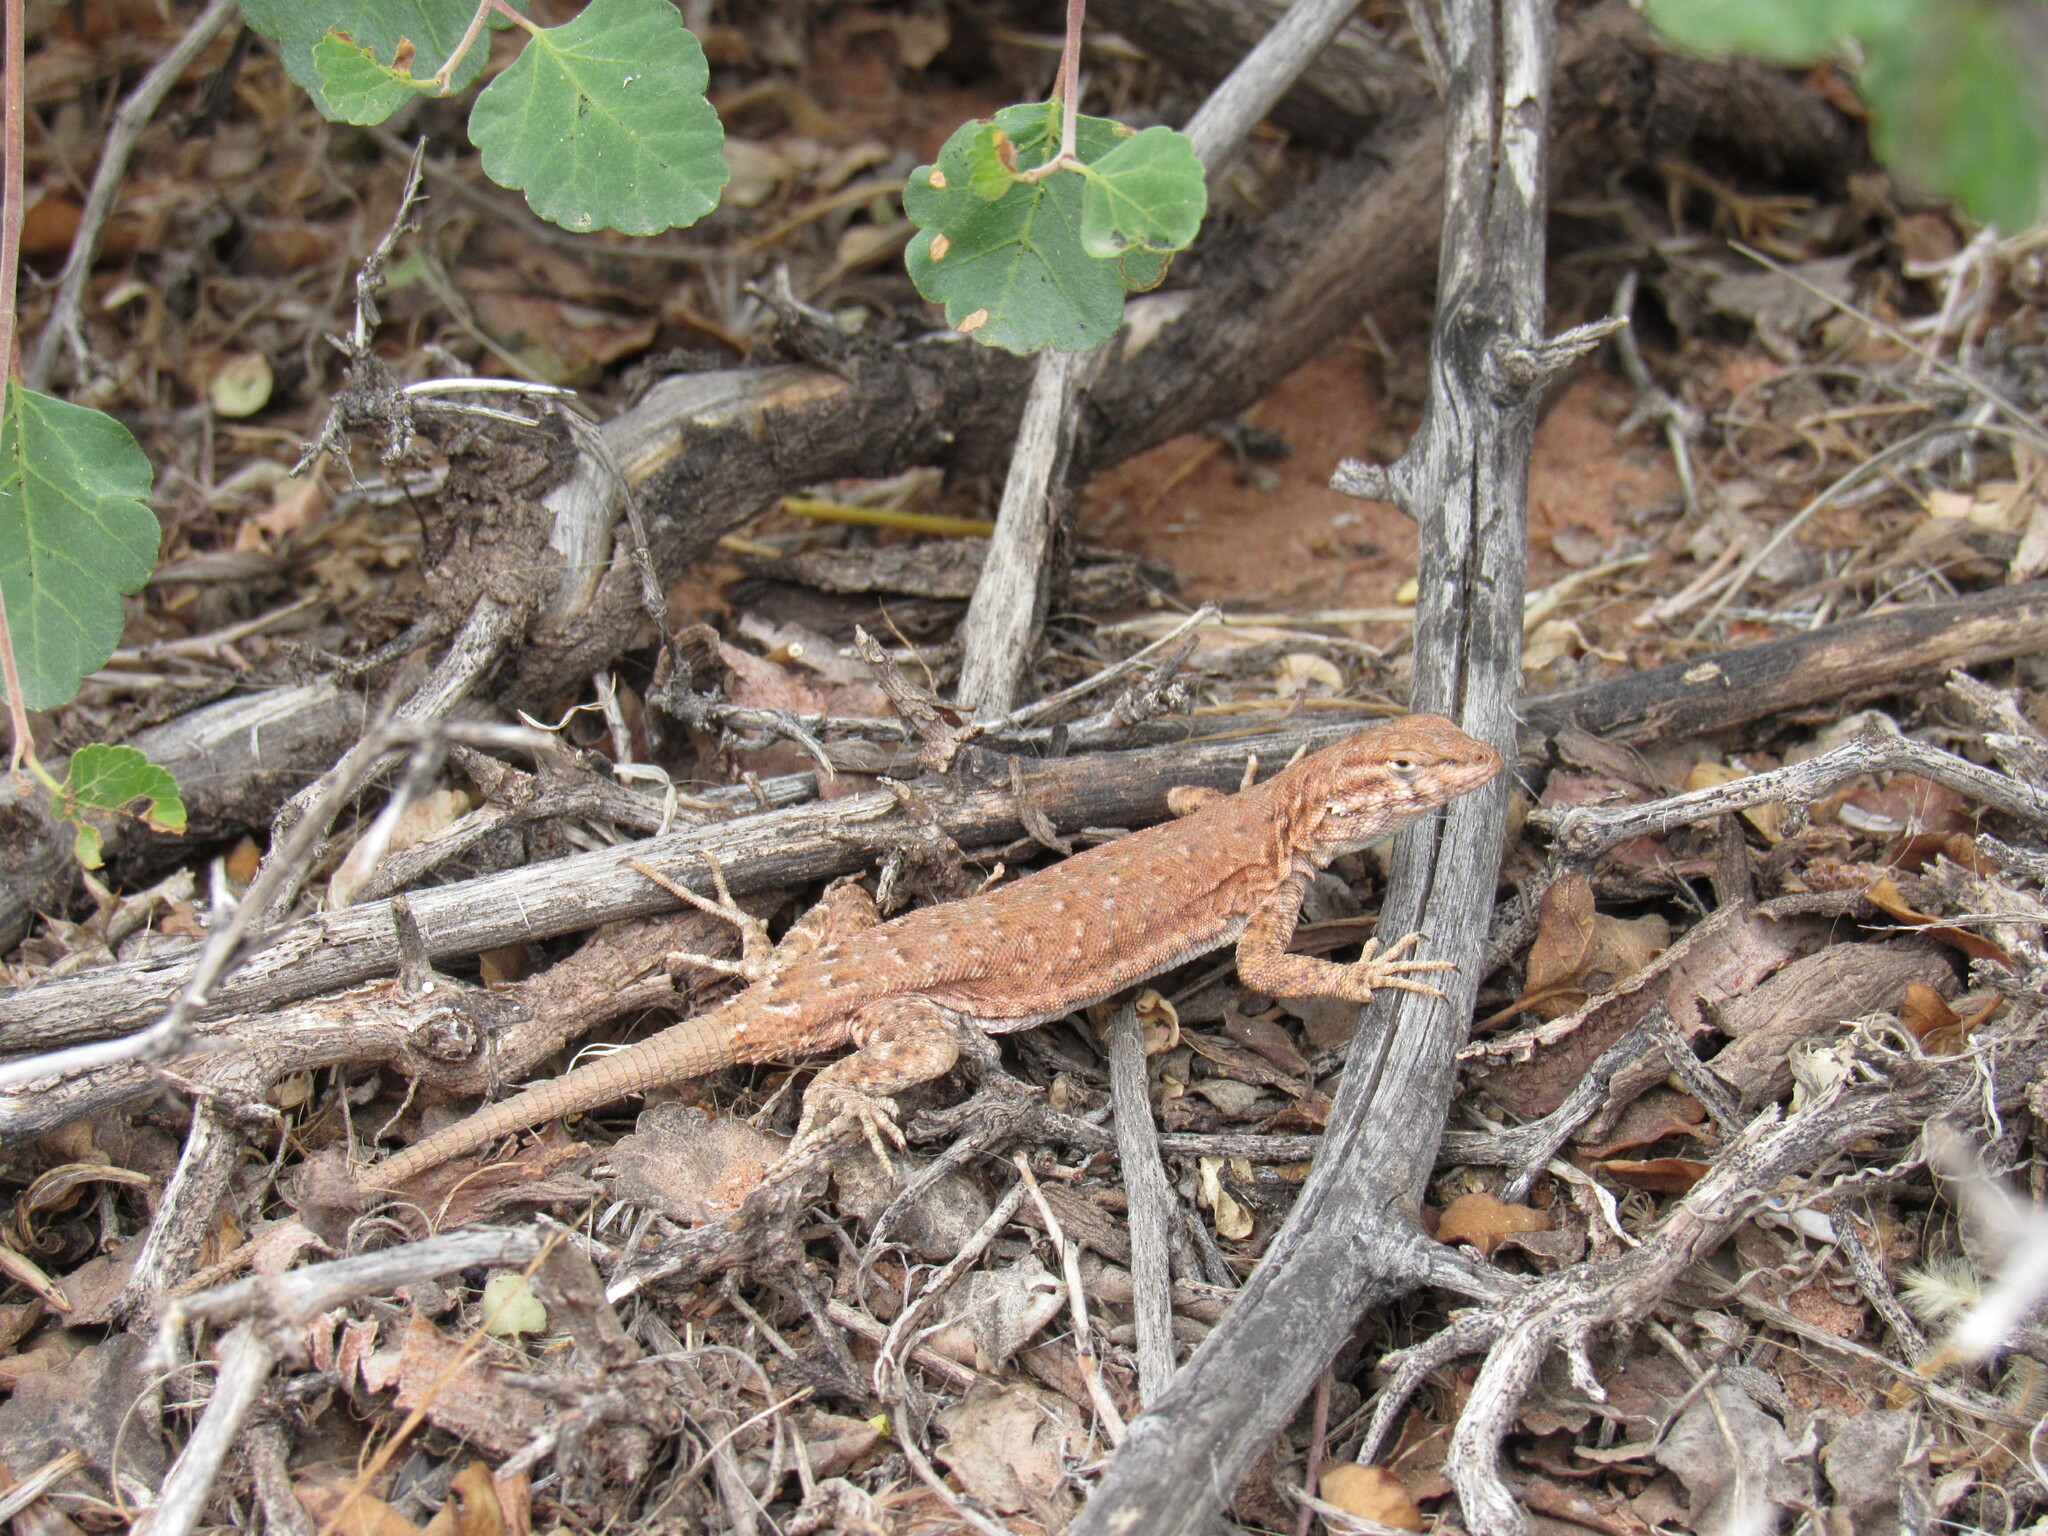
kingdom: Animalia
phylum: Chordata
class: Squamata
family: Phrynosomatidae
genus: Uta
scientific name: Uta stansburiana
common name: Side-blotched lizard
